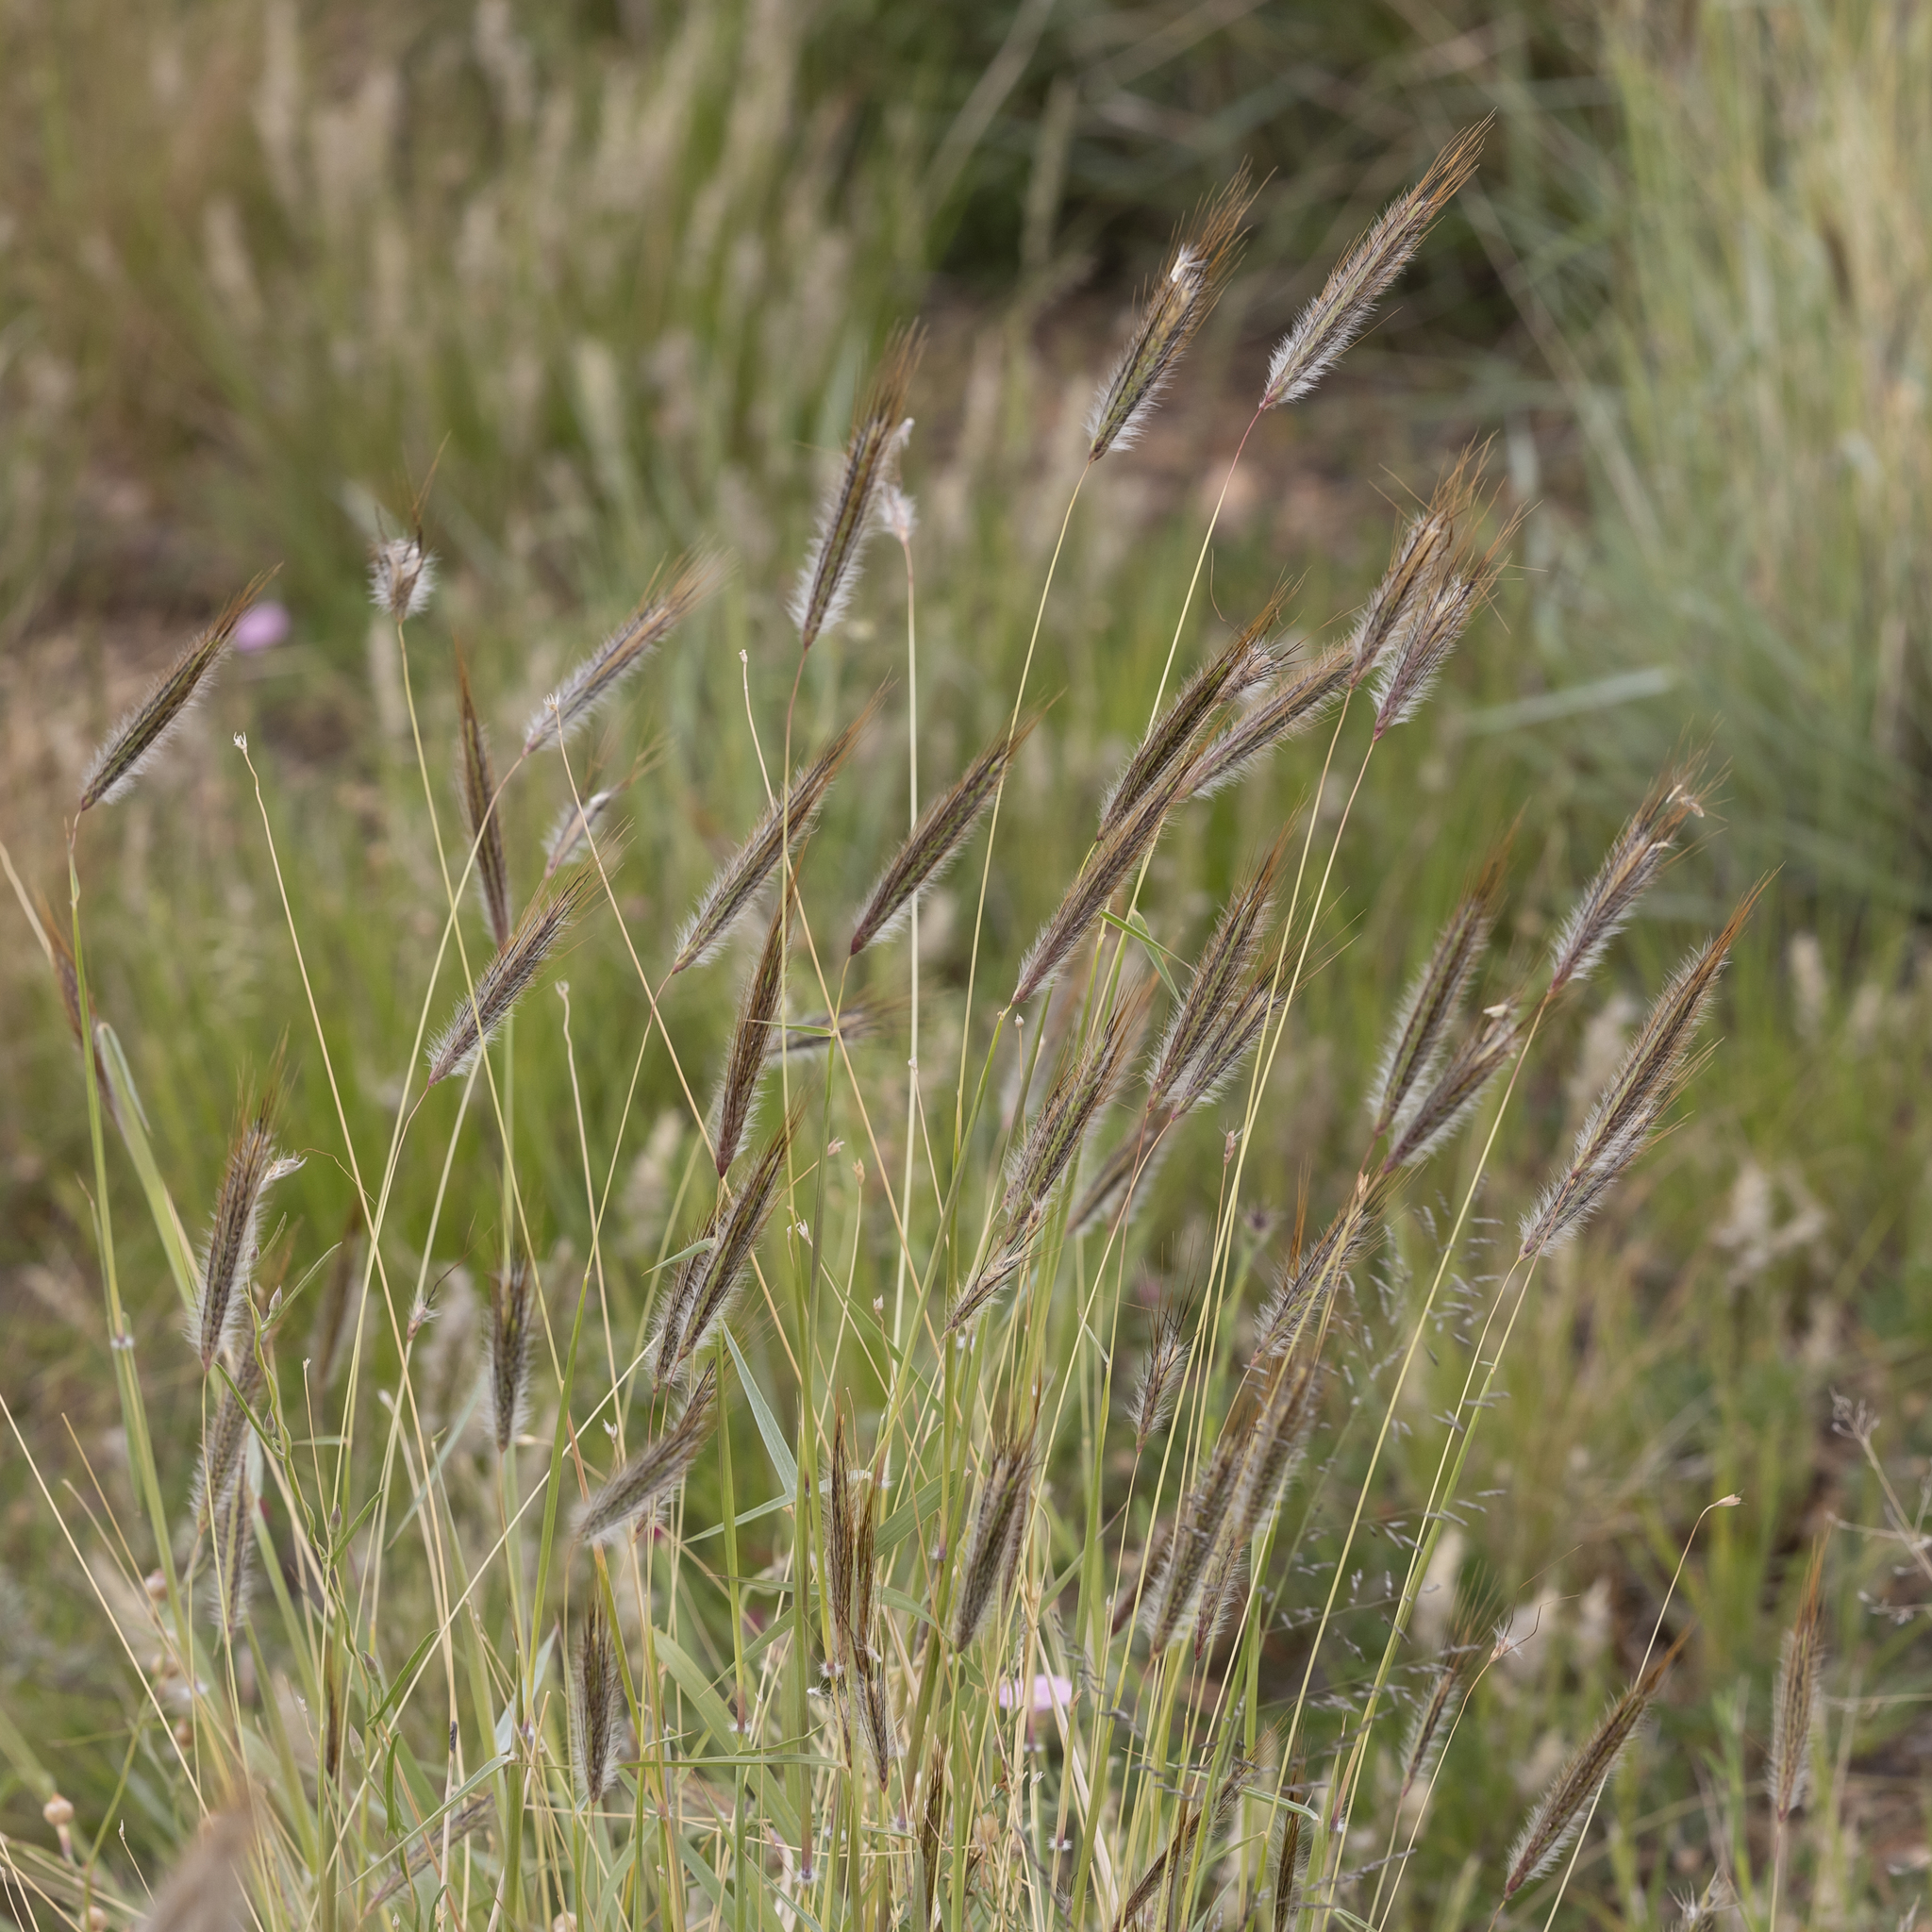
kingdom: Plantae
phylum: Tracheophyta
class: Liliopsida
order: Poales
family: Poaceae
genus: Dichanthium
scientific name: Dichanthium sericeum
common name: Silky bluestem
